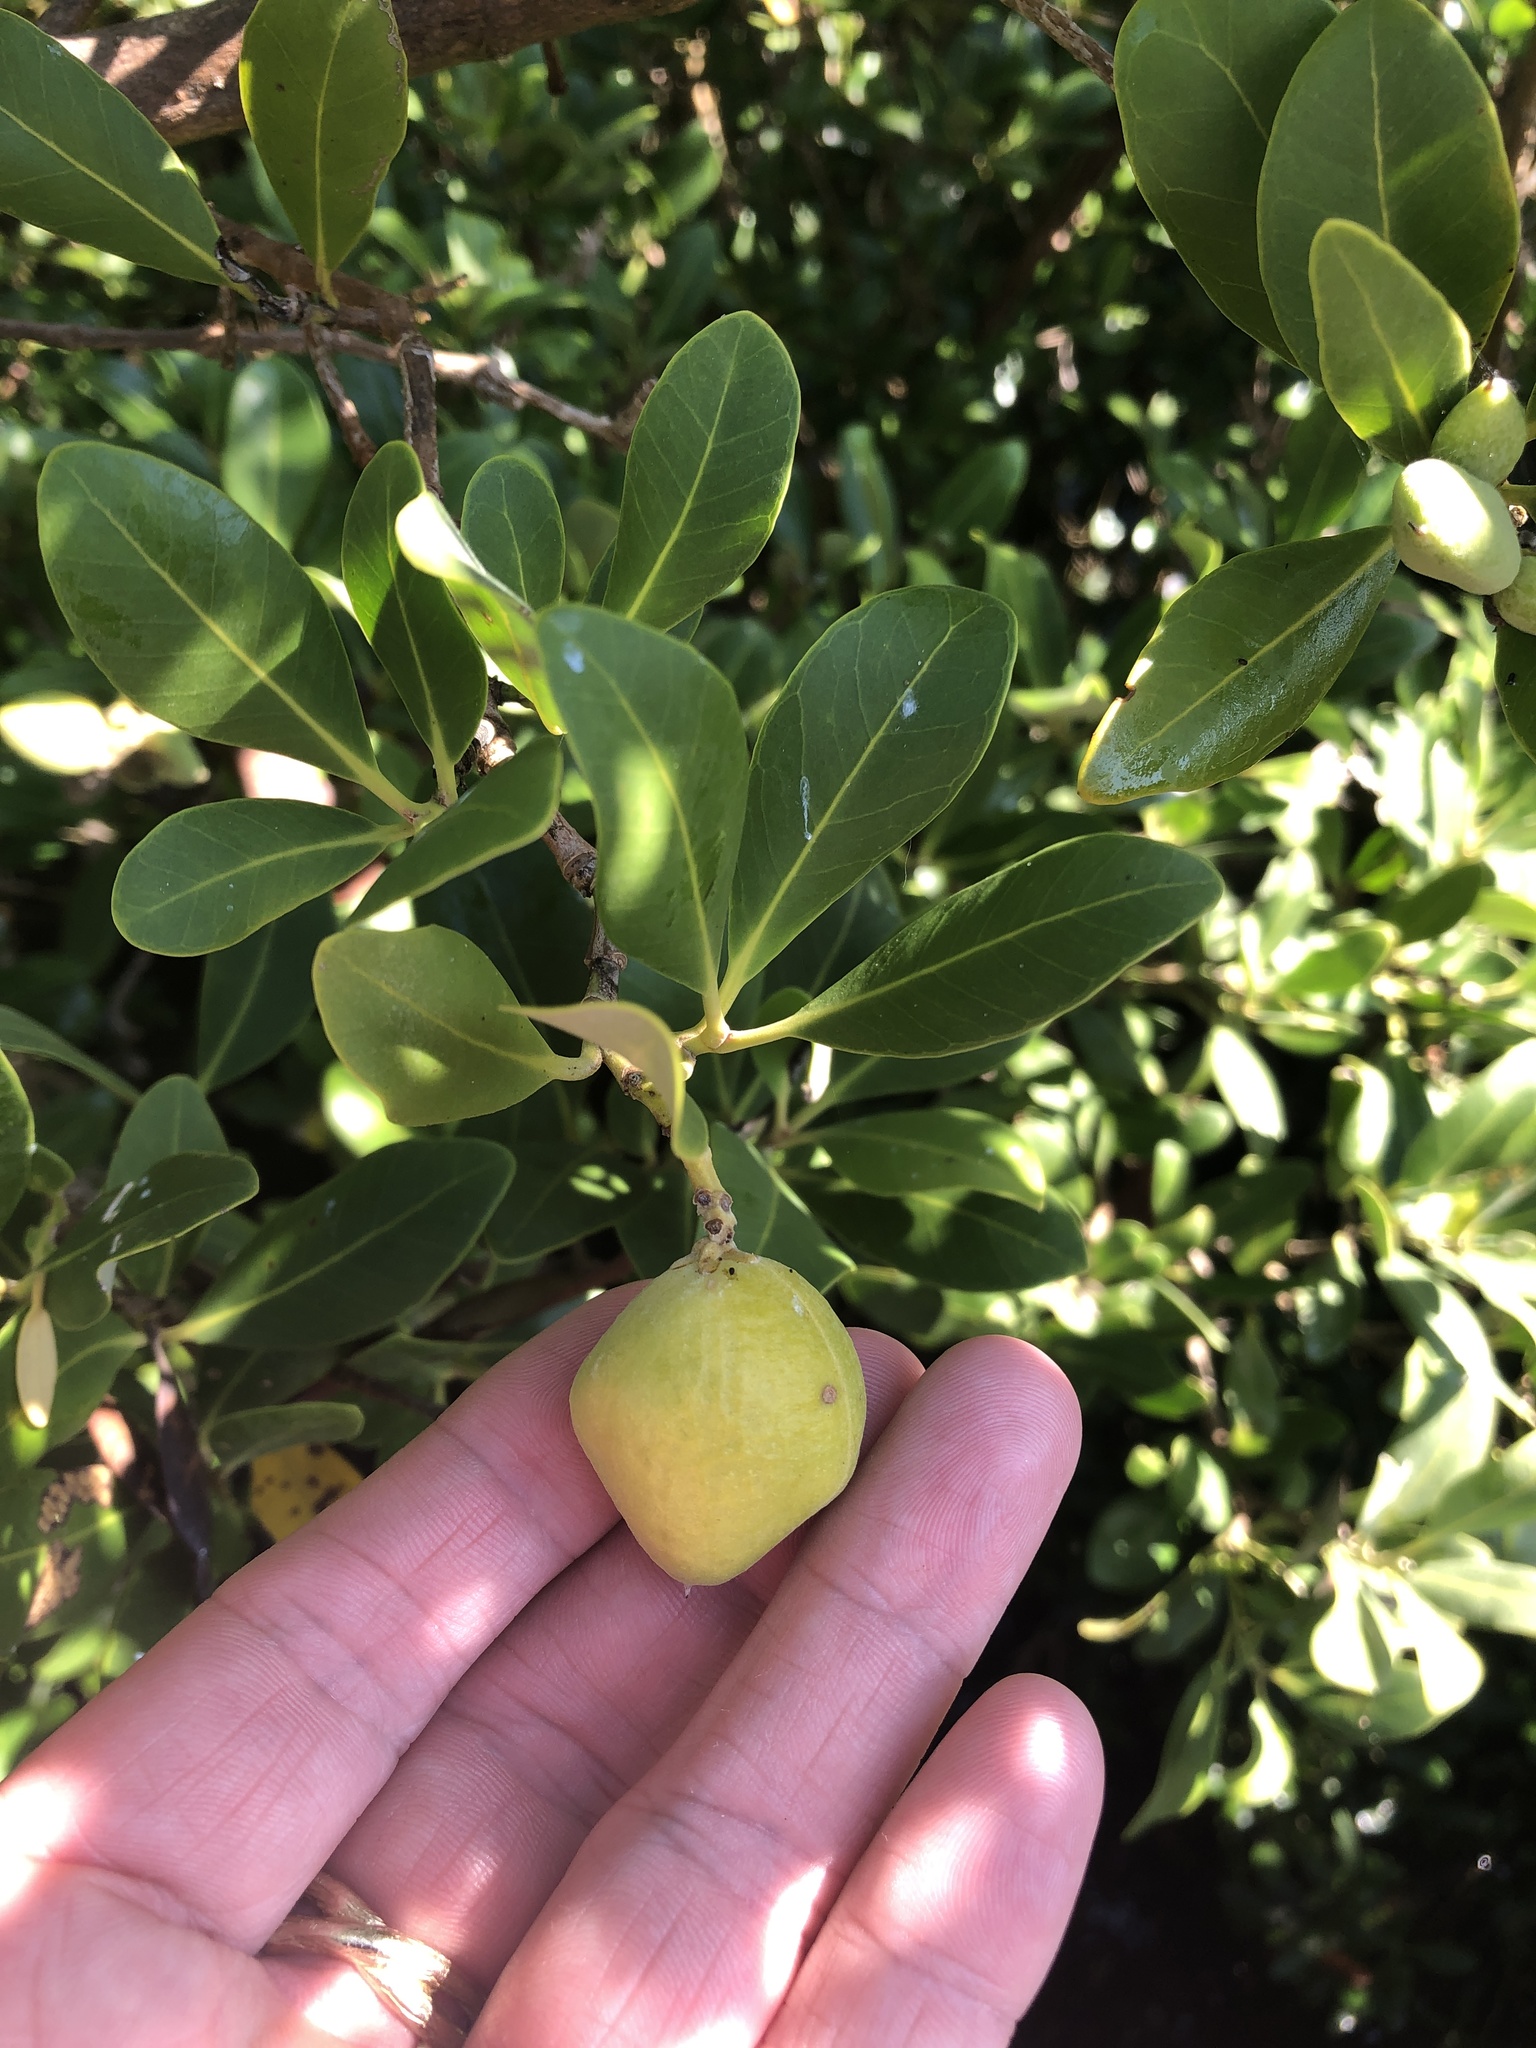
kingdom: Plantae
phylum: Tracheophyta
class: Magnoliopsida
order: Lamiales
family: Acanthaceae
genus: Avicennia
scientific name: Avicennia germinans
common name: Black mangrove
